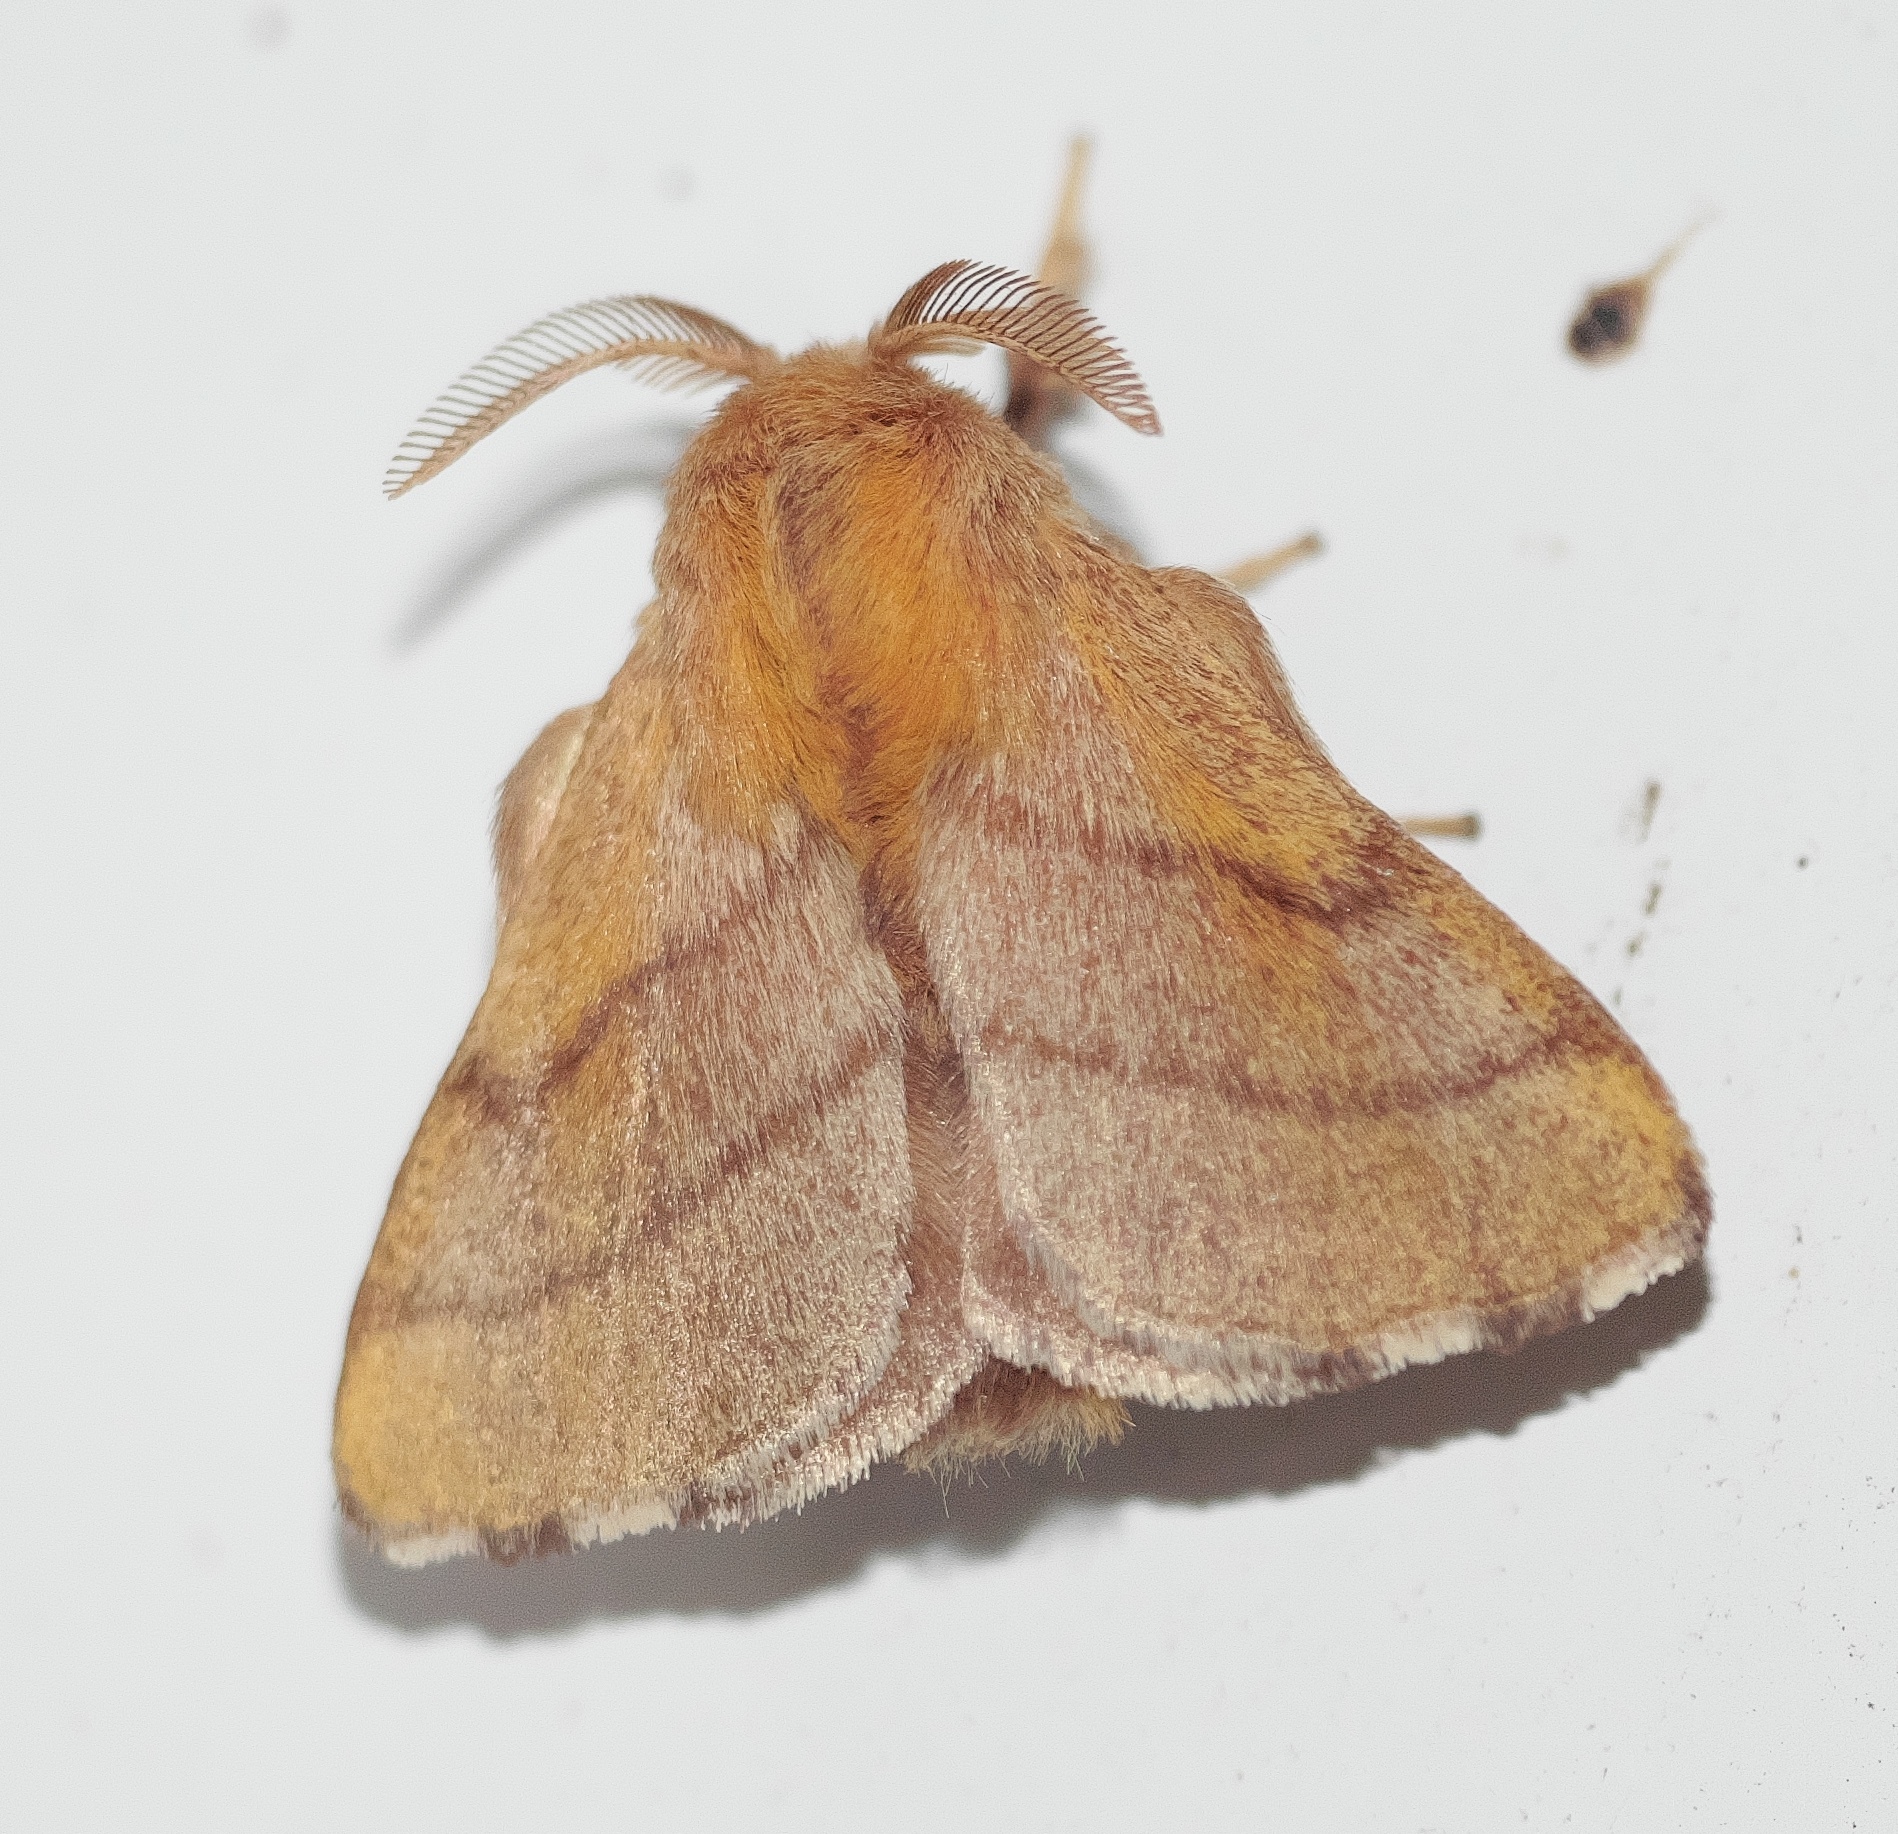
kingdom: Animalia
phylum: Arthropoda
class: Insecta
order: Lepidoptera
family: Lasiocampidae
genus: Malacosoma
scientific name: Malacosoma disstria
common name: Forest tent caterpillar
